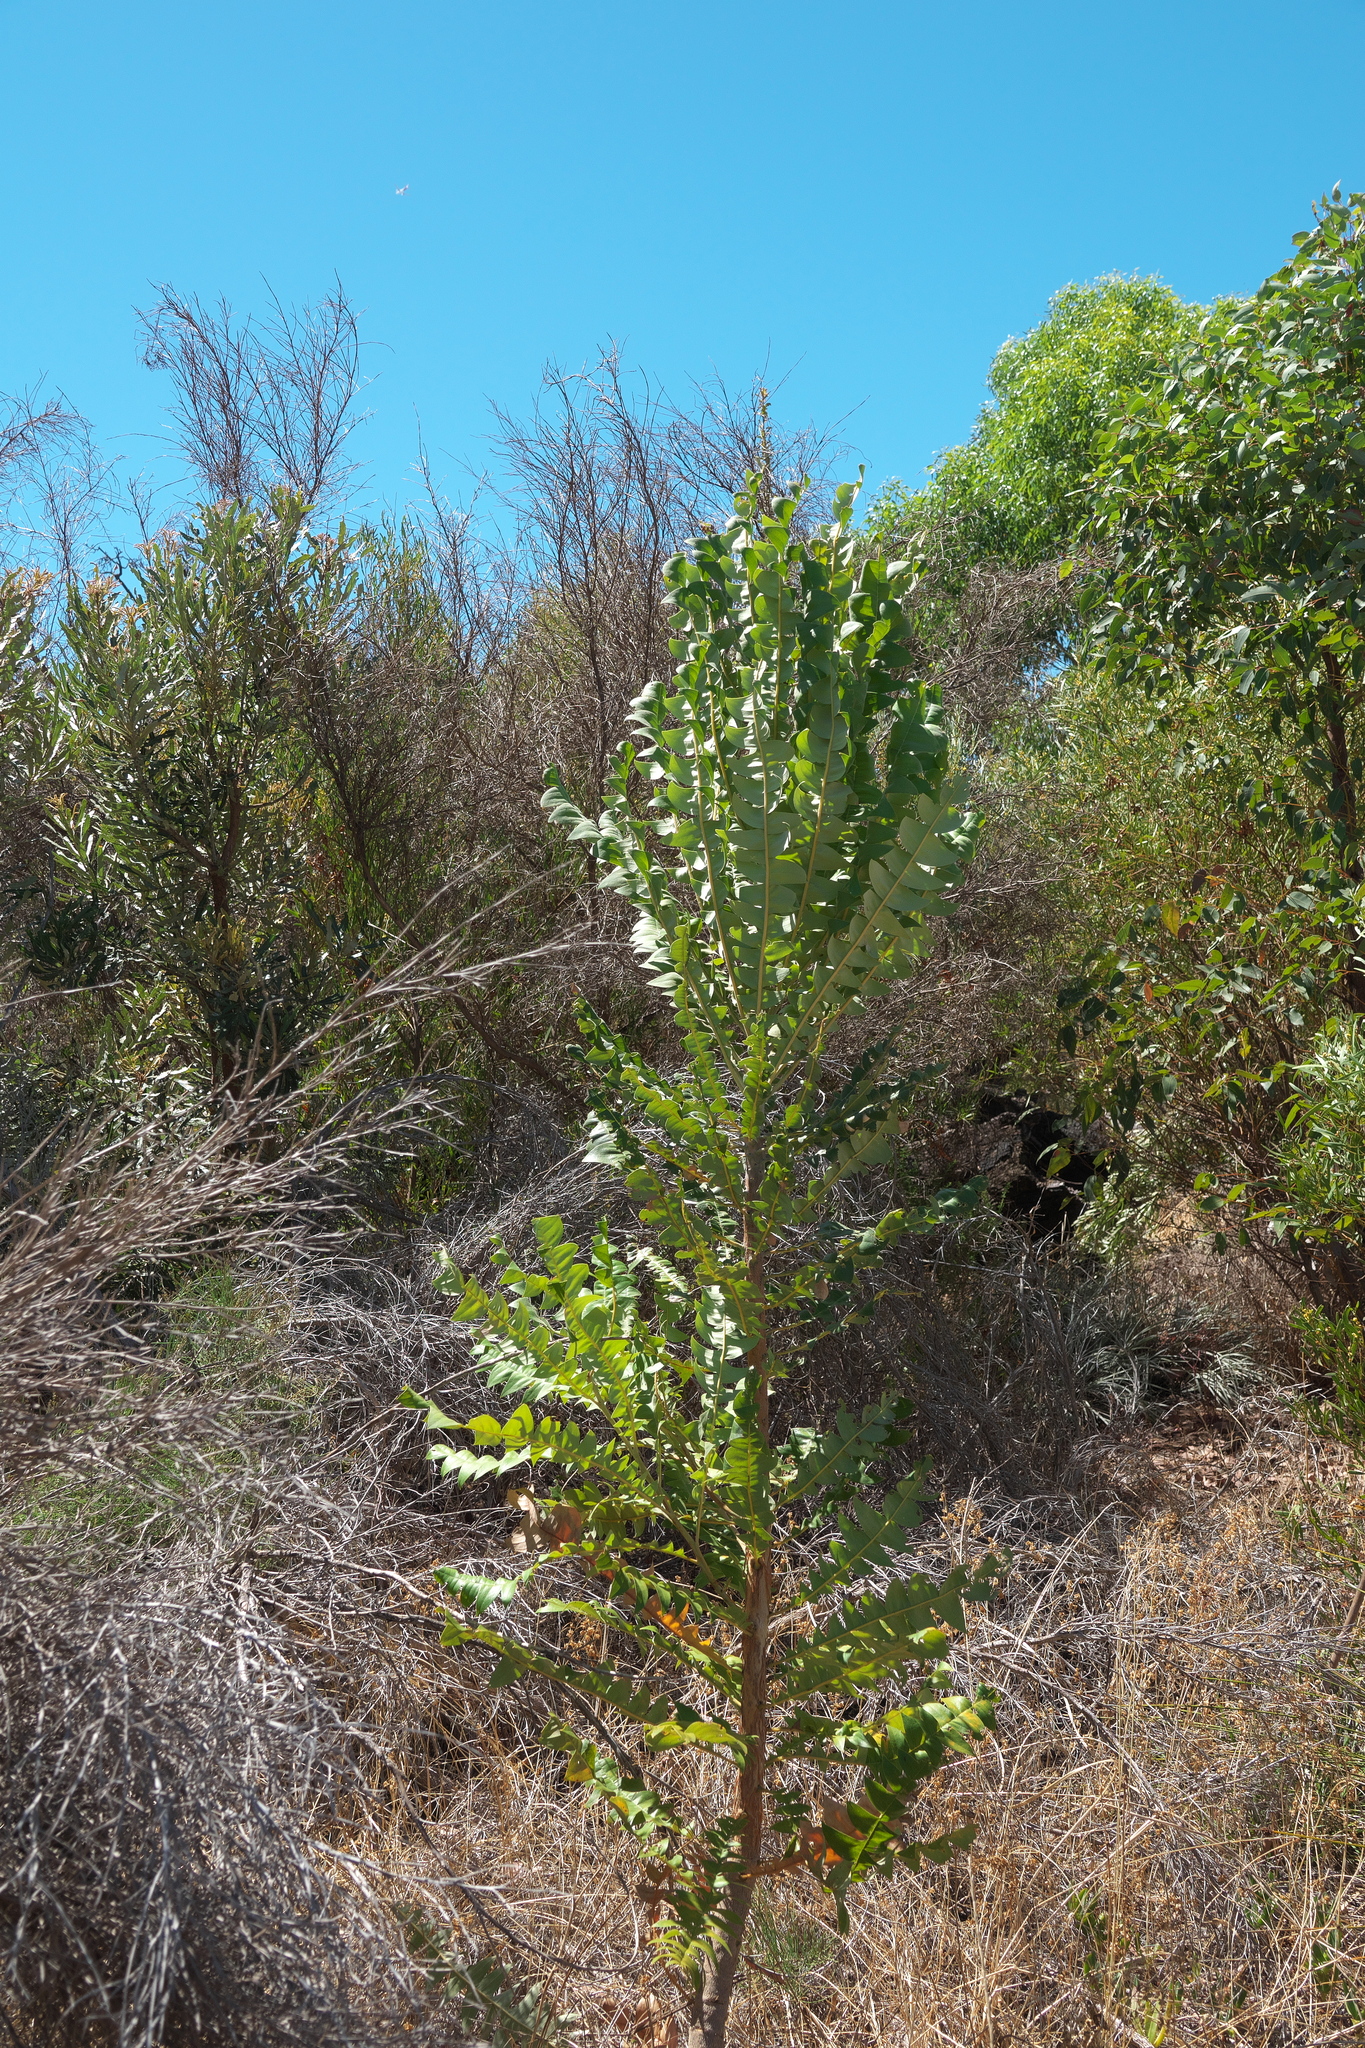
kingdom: Plantae
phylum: Tracheophyta
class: Magnoliopsida
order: Proteales
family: Proteaceae
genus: Banksia
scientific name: Banksia grandis
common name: Giant banksia
